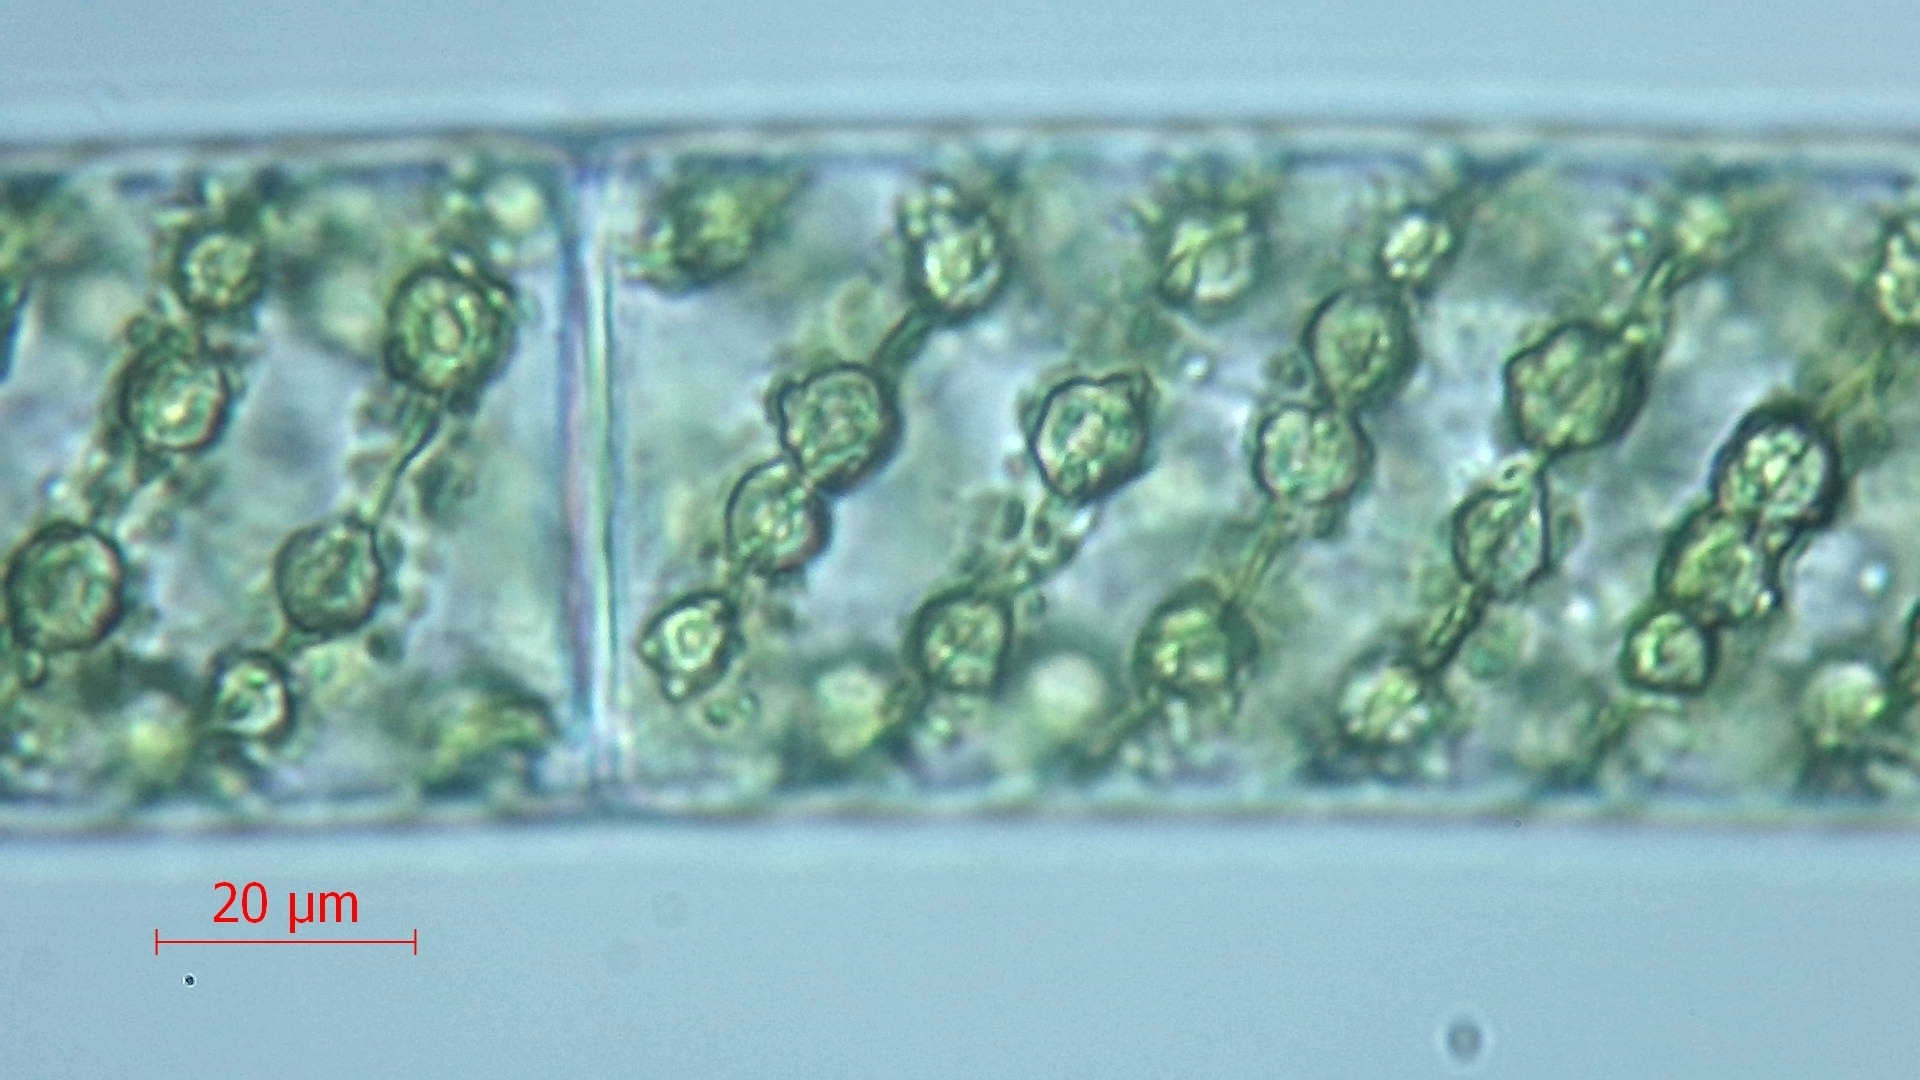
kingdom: Plantae
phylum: Charophyta
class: Zygnematophyceae
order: Zygnematales
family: Zygnemataceae
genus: Spirogyra
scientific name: Spirogyra
